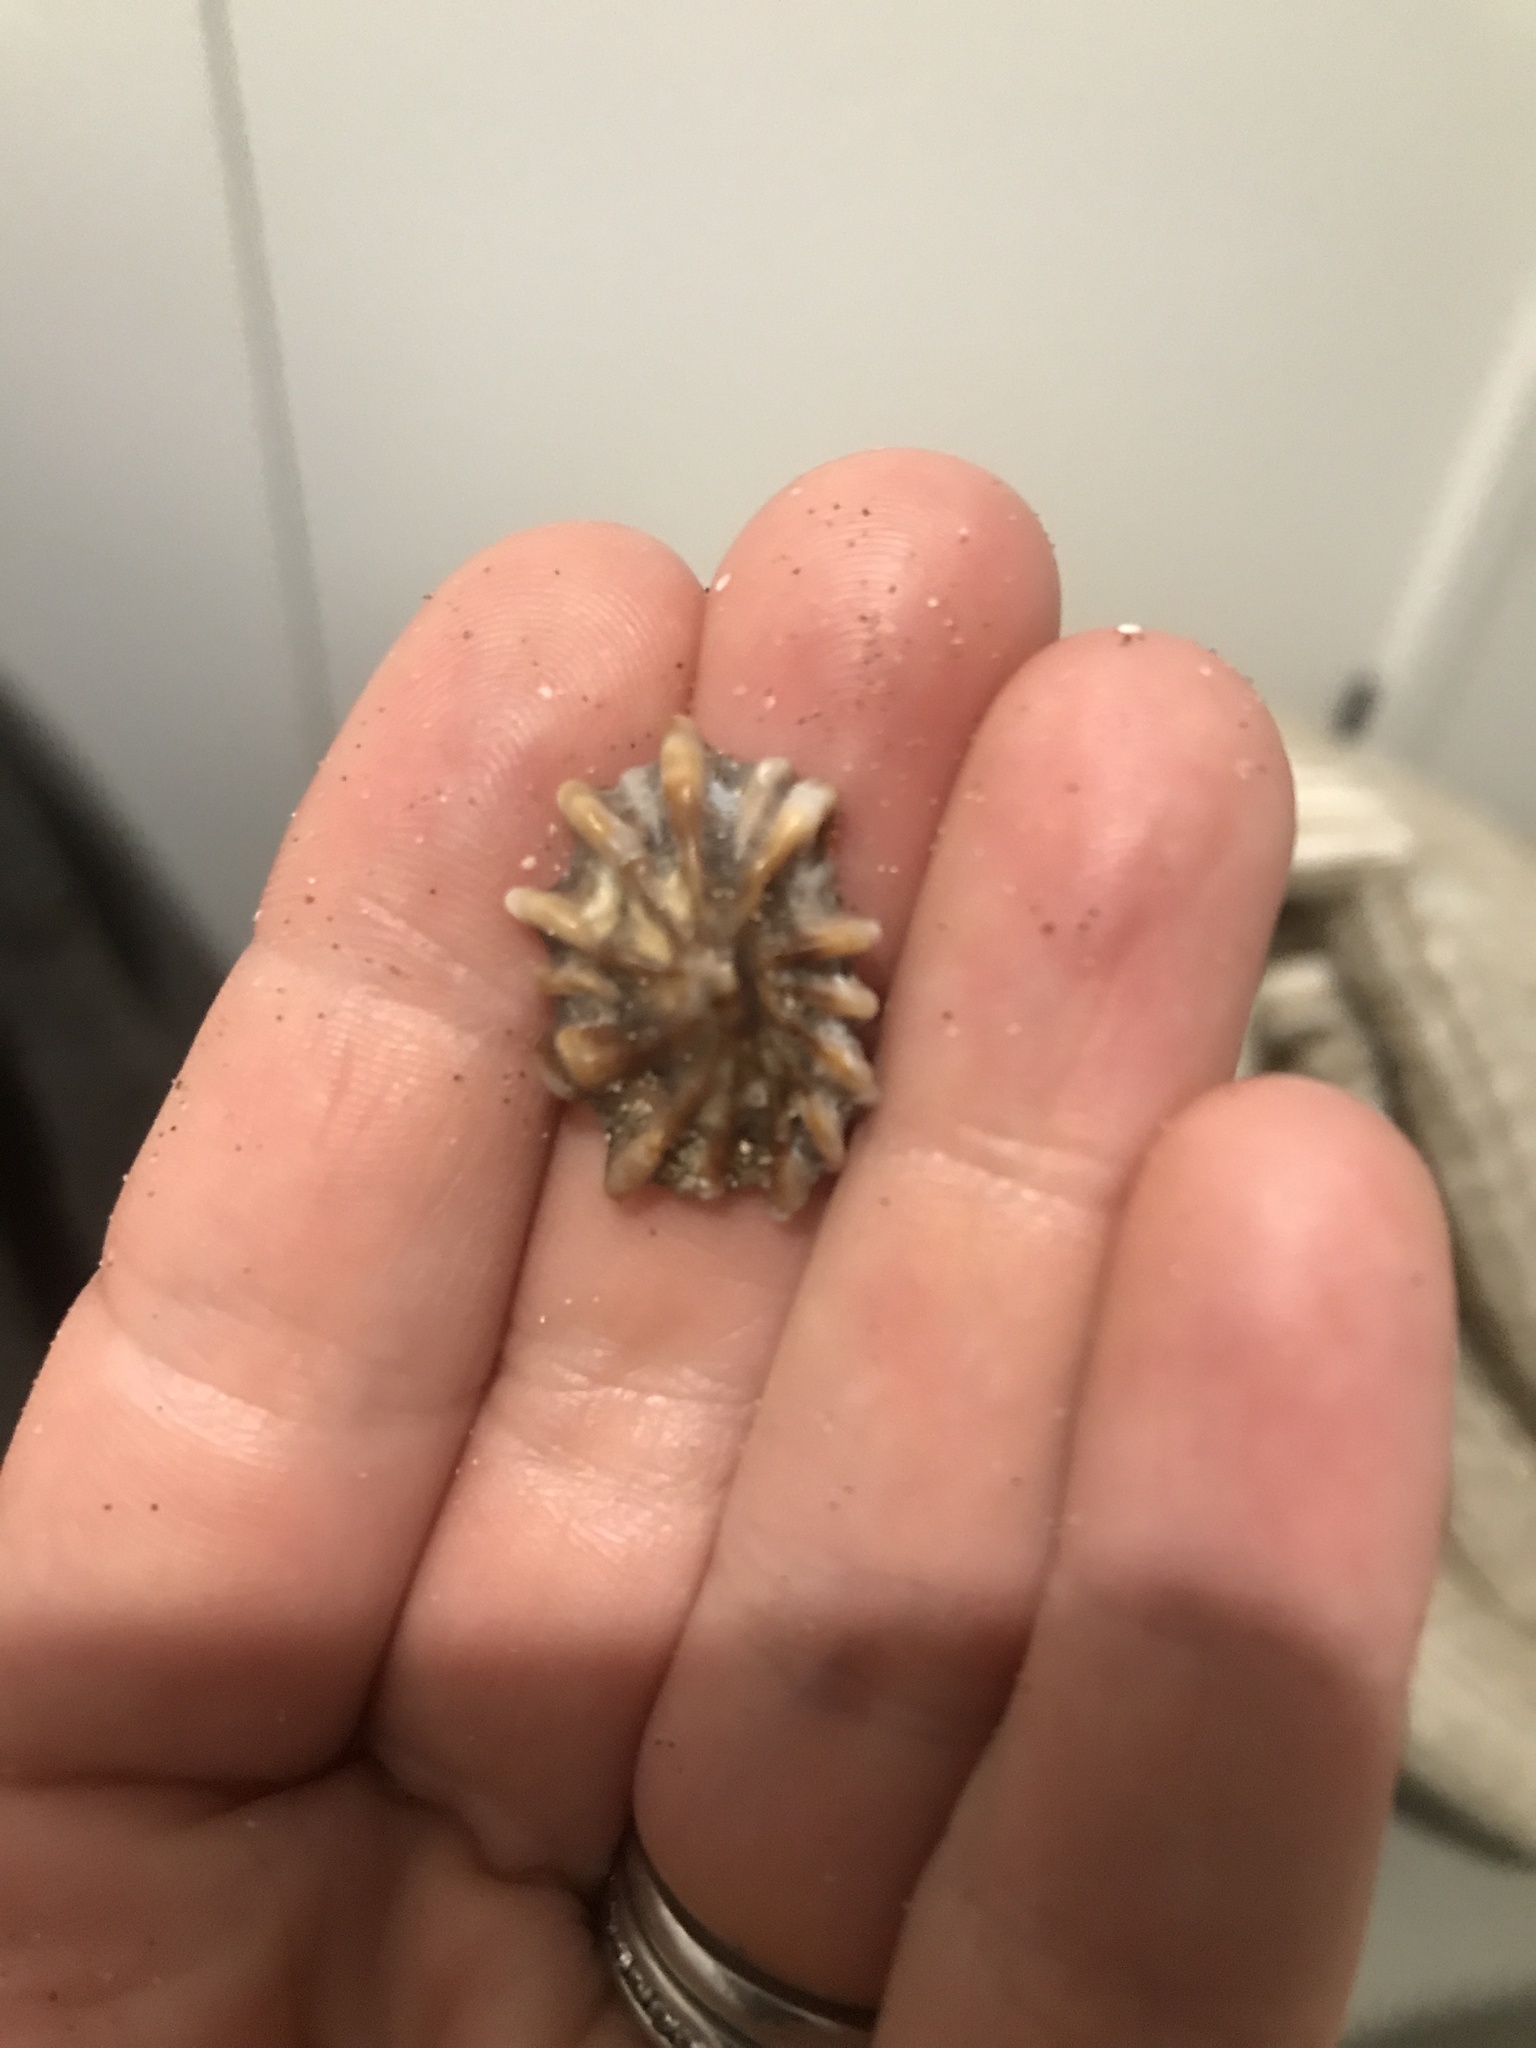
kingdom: Animalia
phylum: Mollusca
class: Gastropoda
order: Siphonariida
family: Siphonariidae
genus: Siphonaria
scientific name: Siphonaria australis
